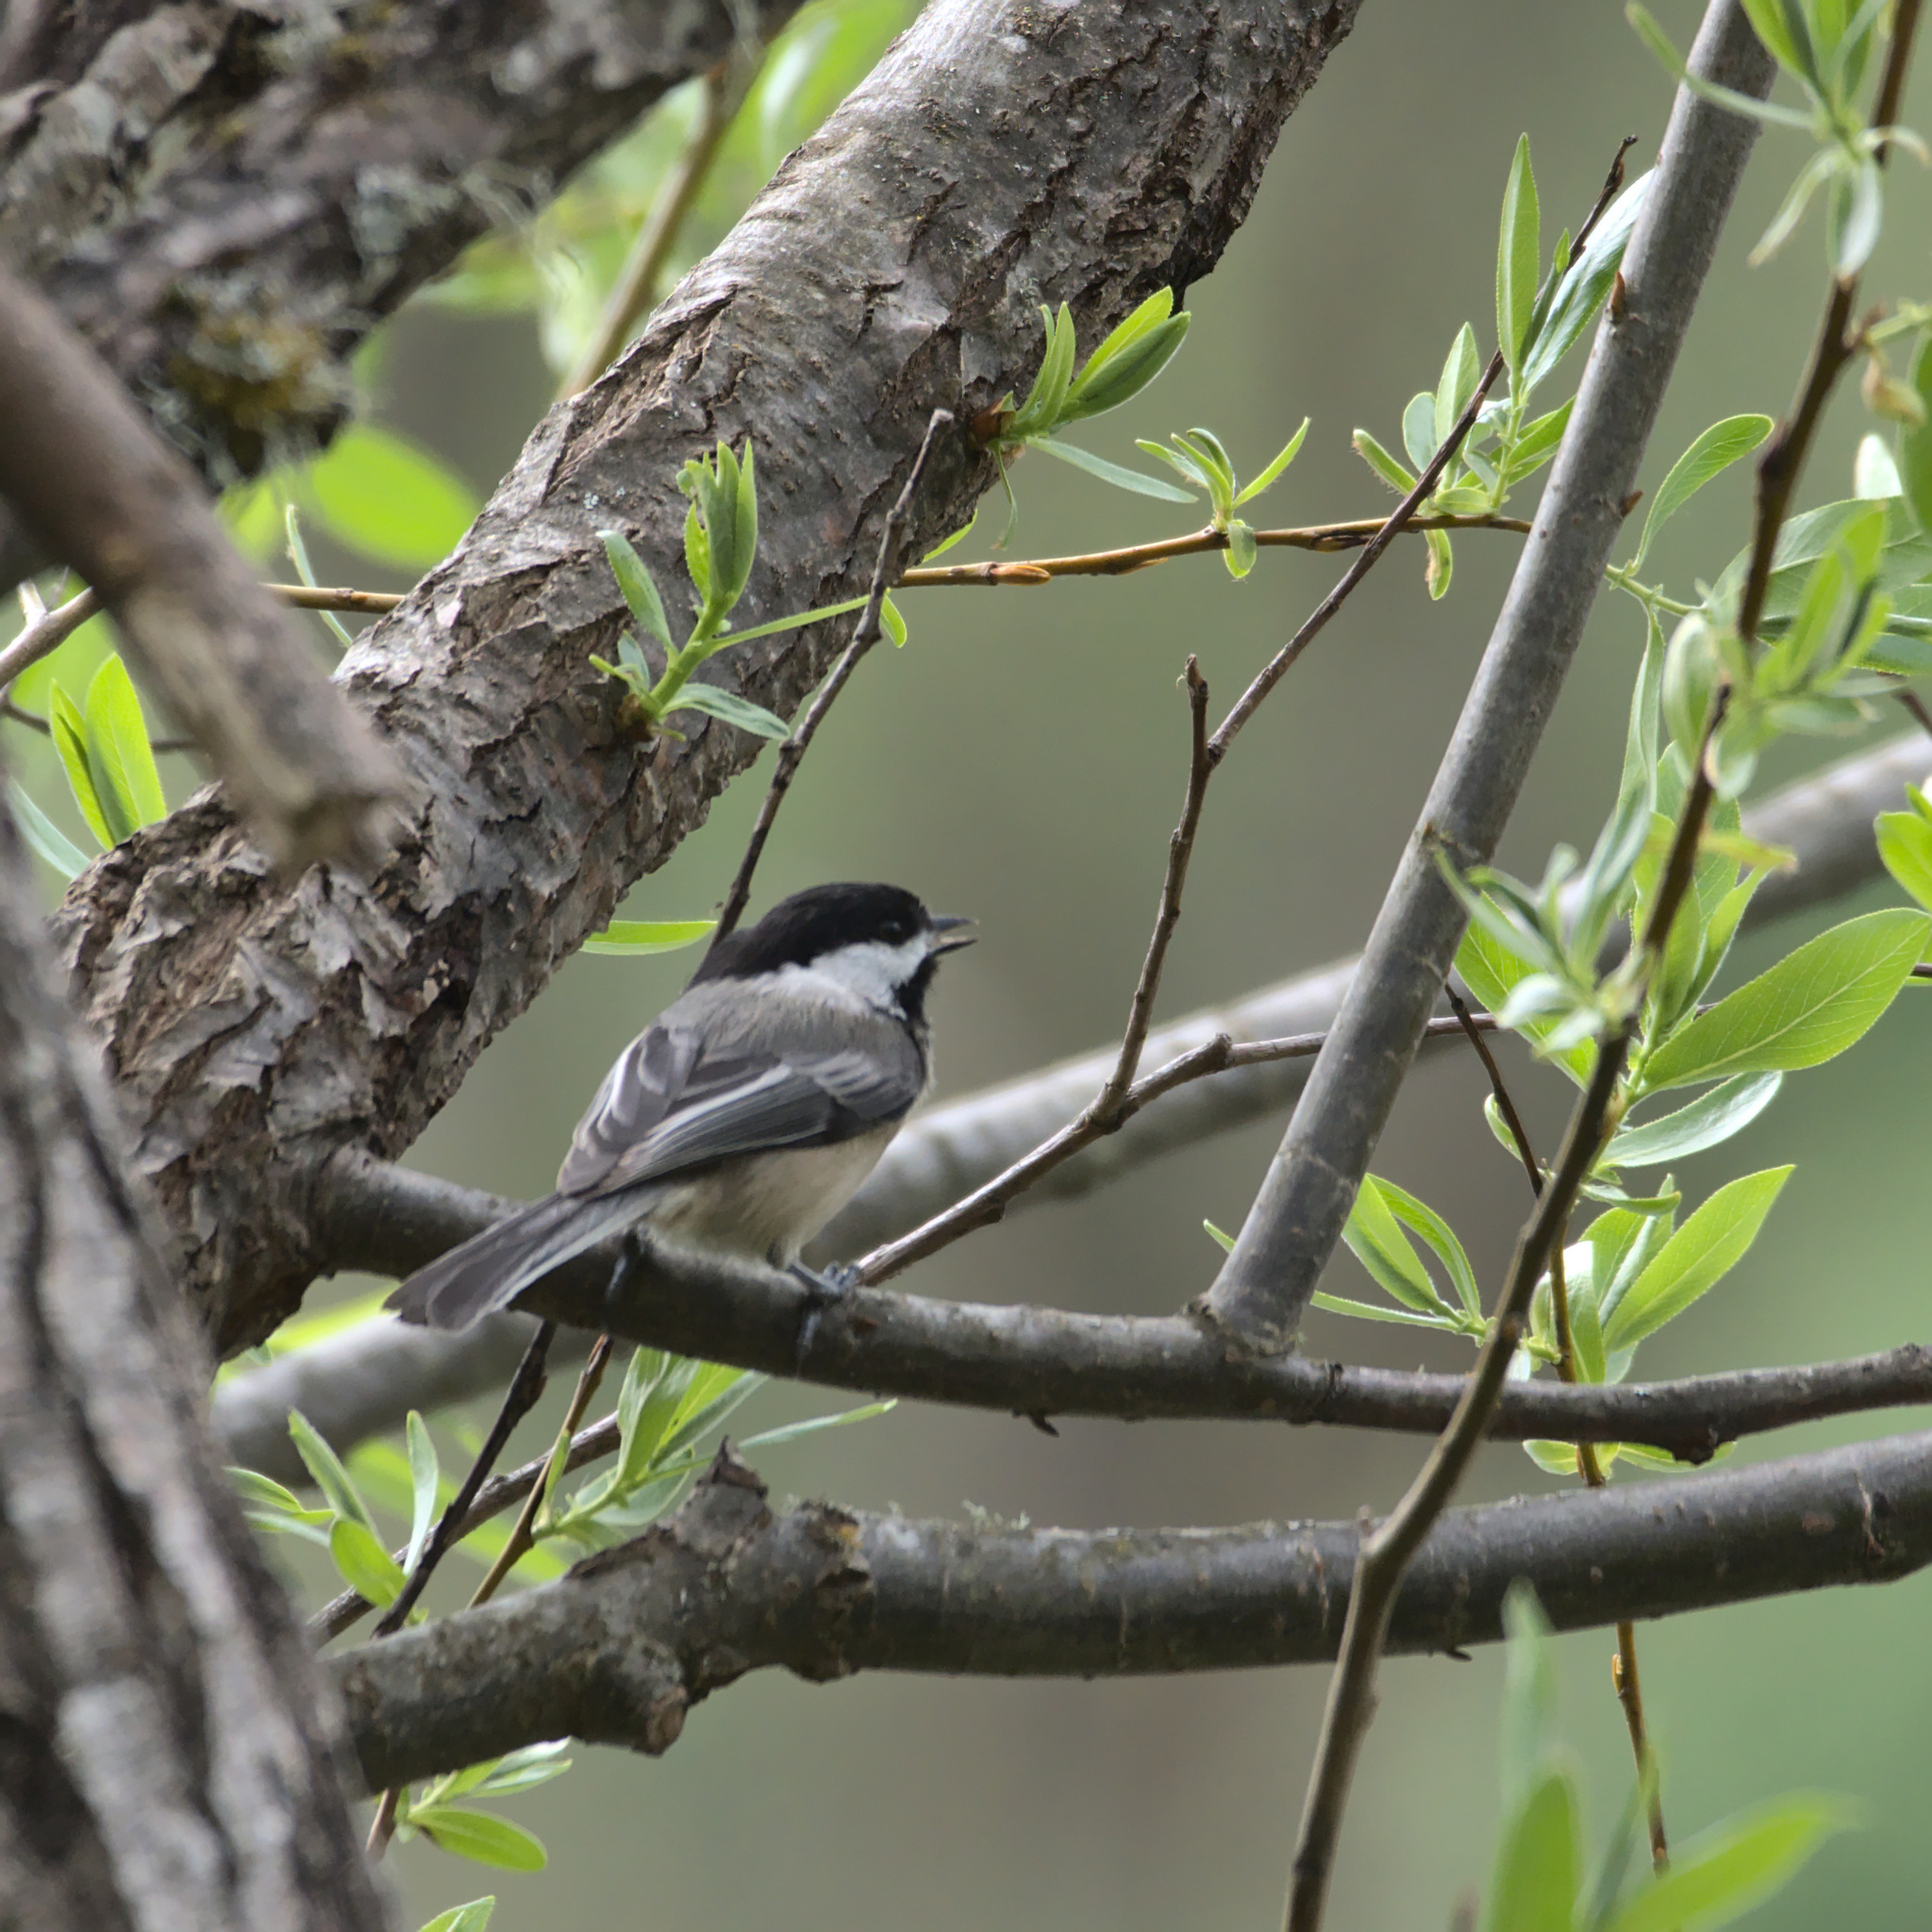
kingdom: Animalia
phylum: Chordata
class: Aves
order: Passeriformes
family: Paridae
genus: Poecile
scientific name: Poecile atricapillus
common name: Black-capped chickadee
